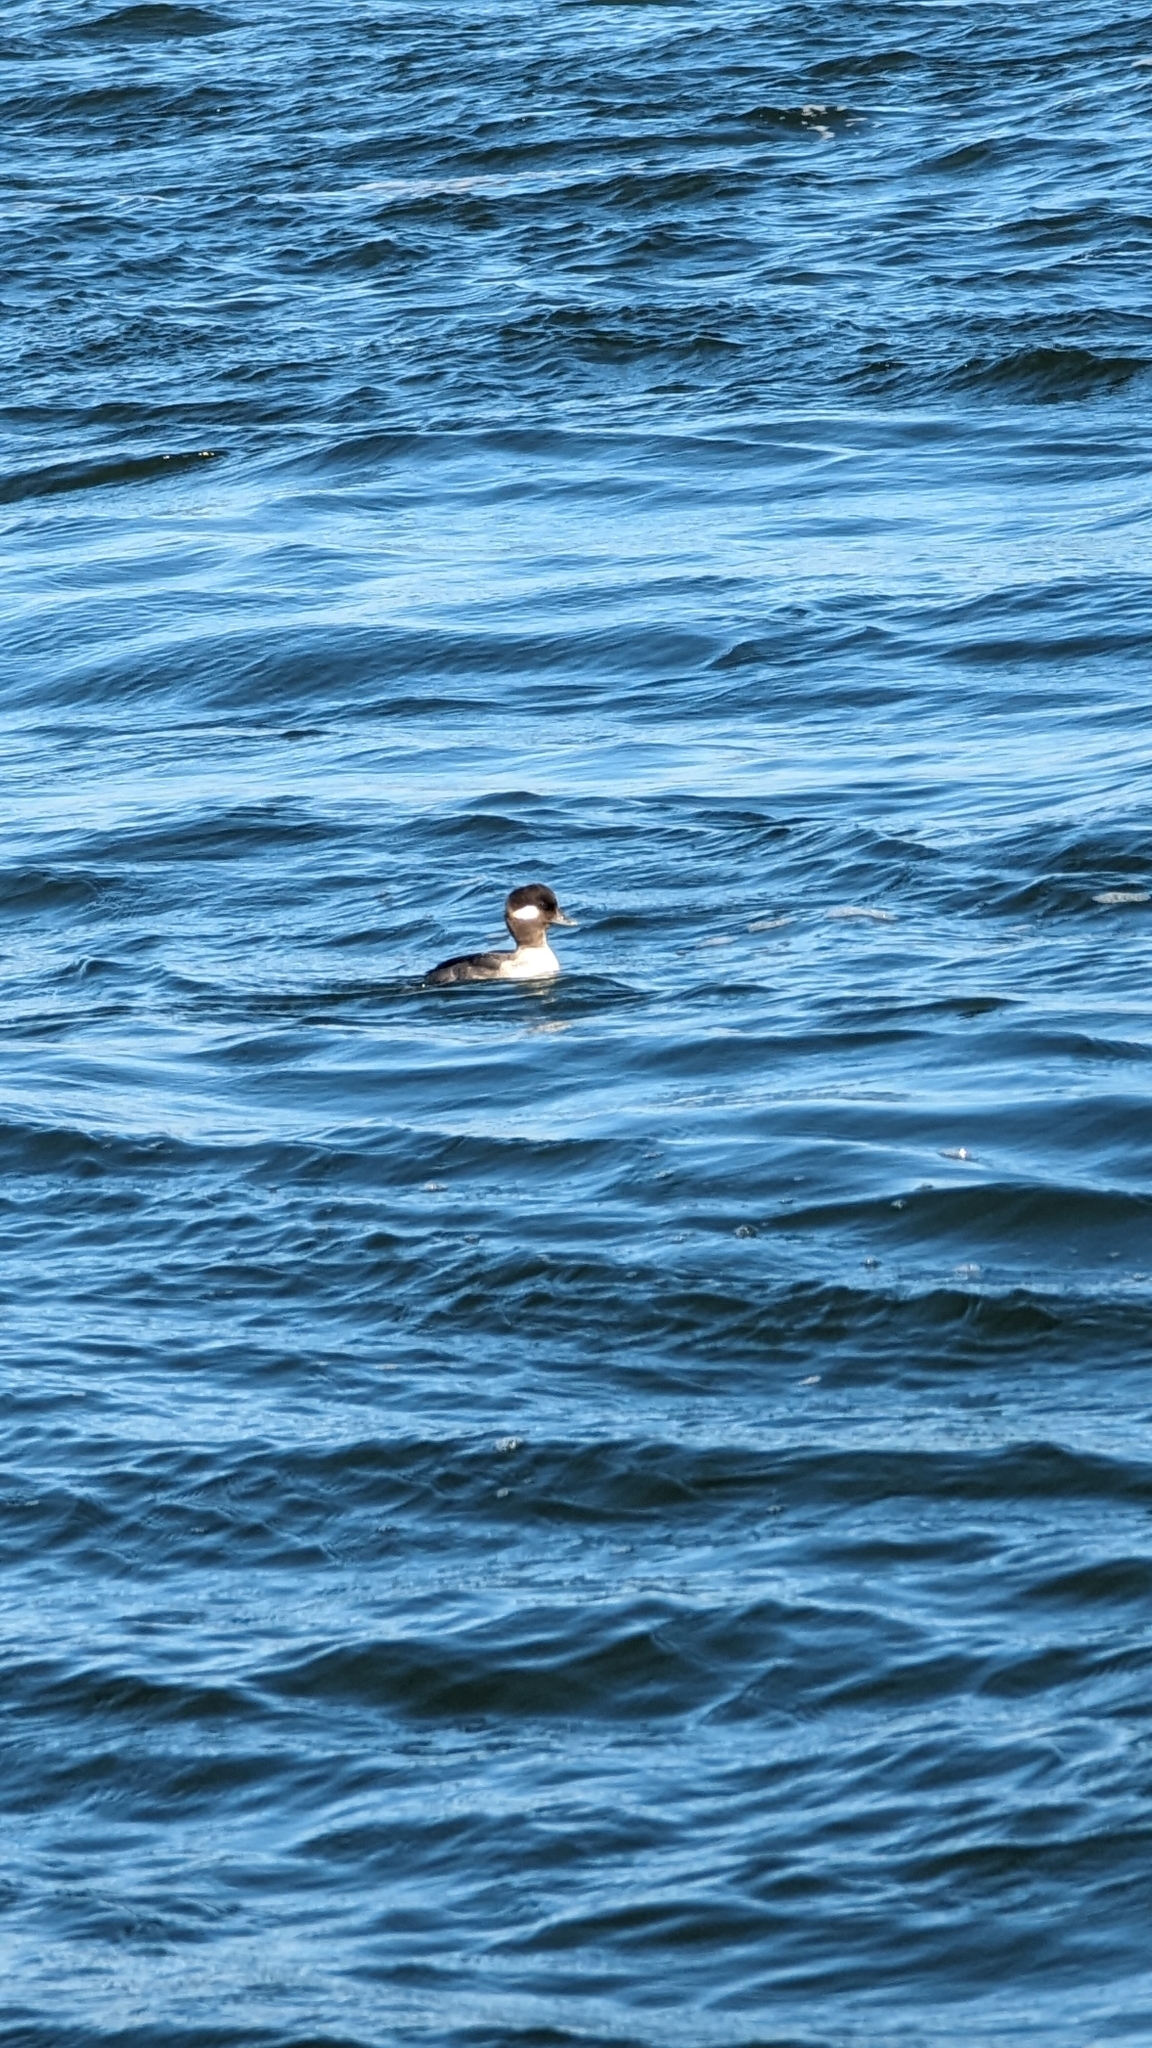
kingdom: Animalia
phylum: Chordata
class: Aves
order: Anseriformes
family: Anatidae
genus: Bucephala
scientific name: Bucephala albeola
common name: Bufflehead
